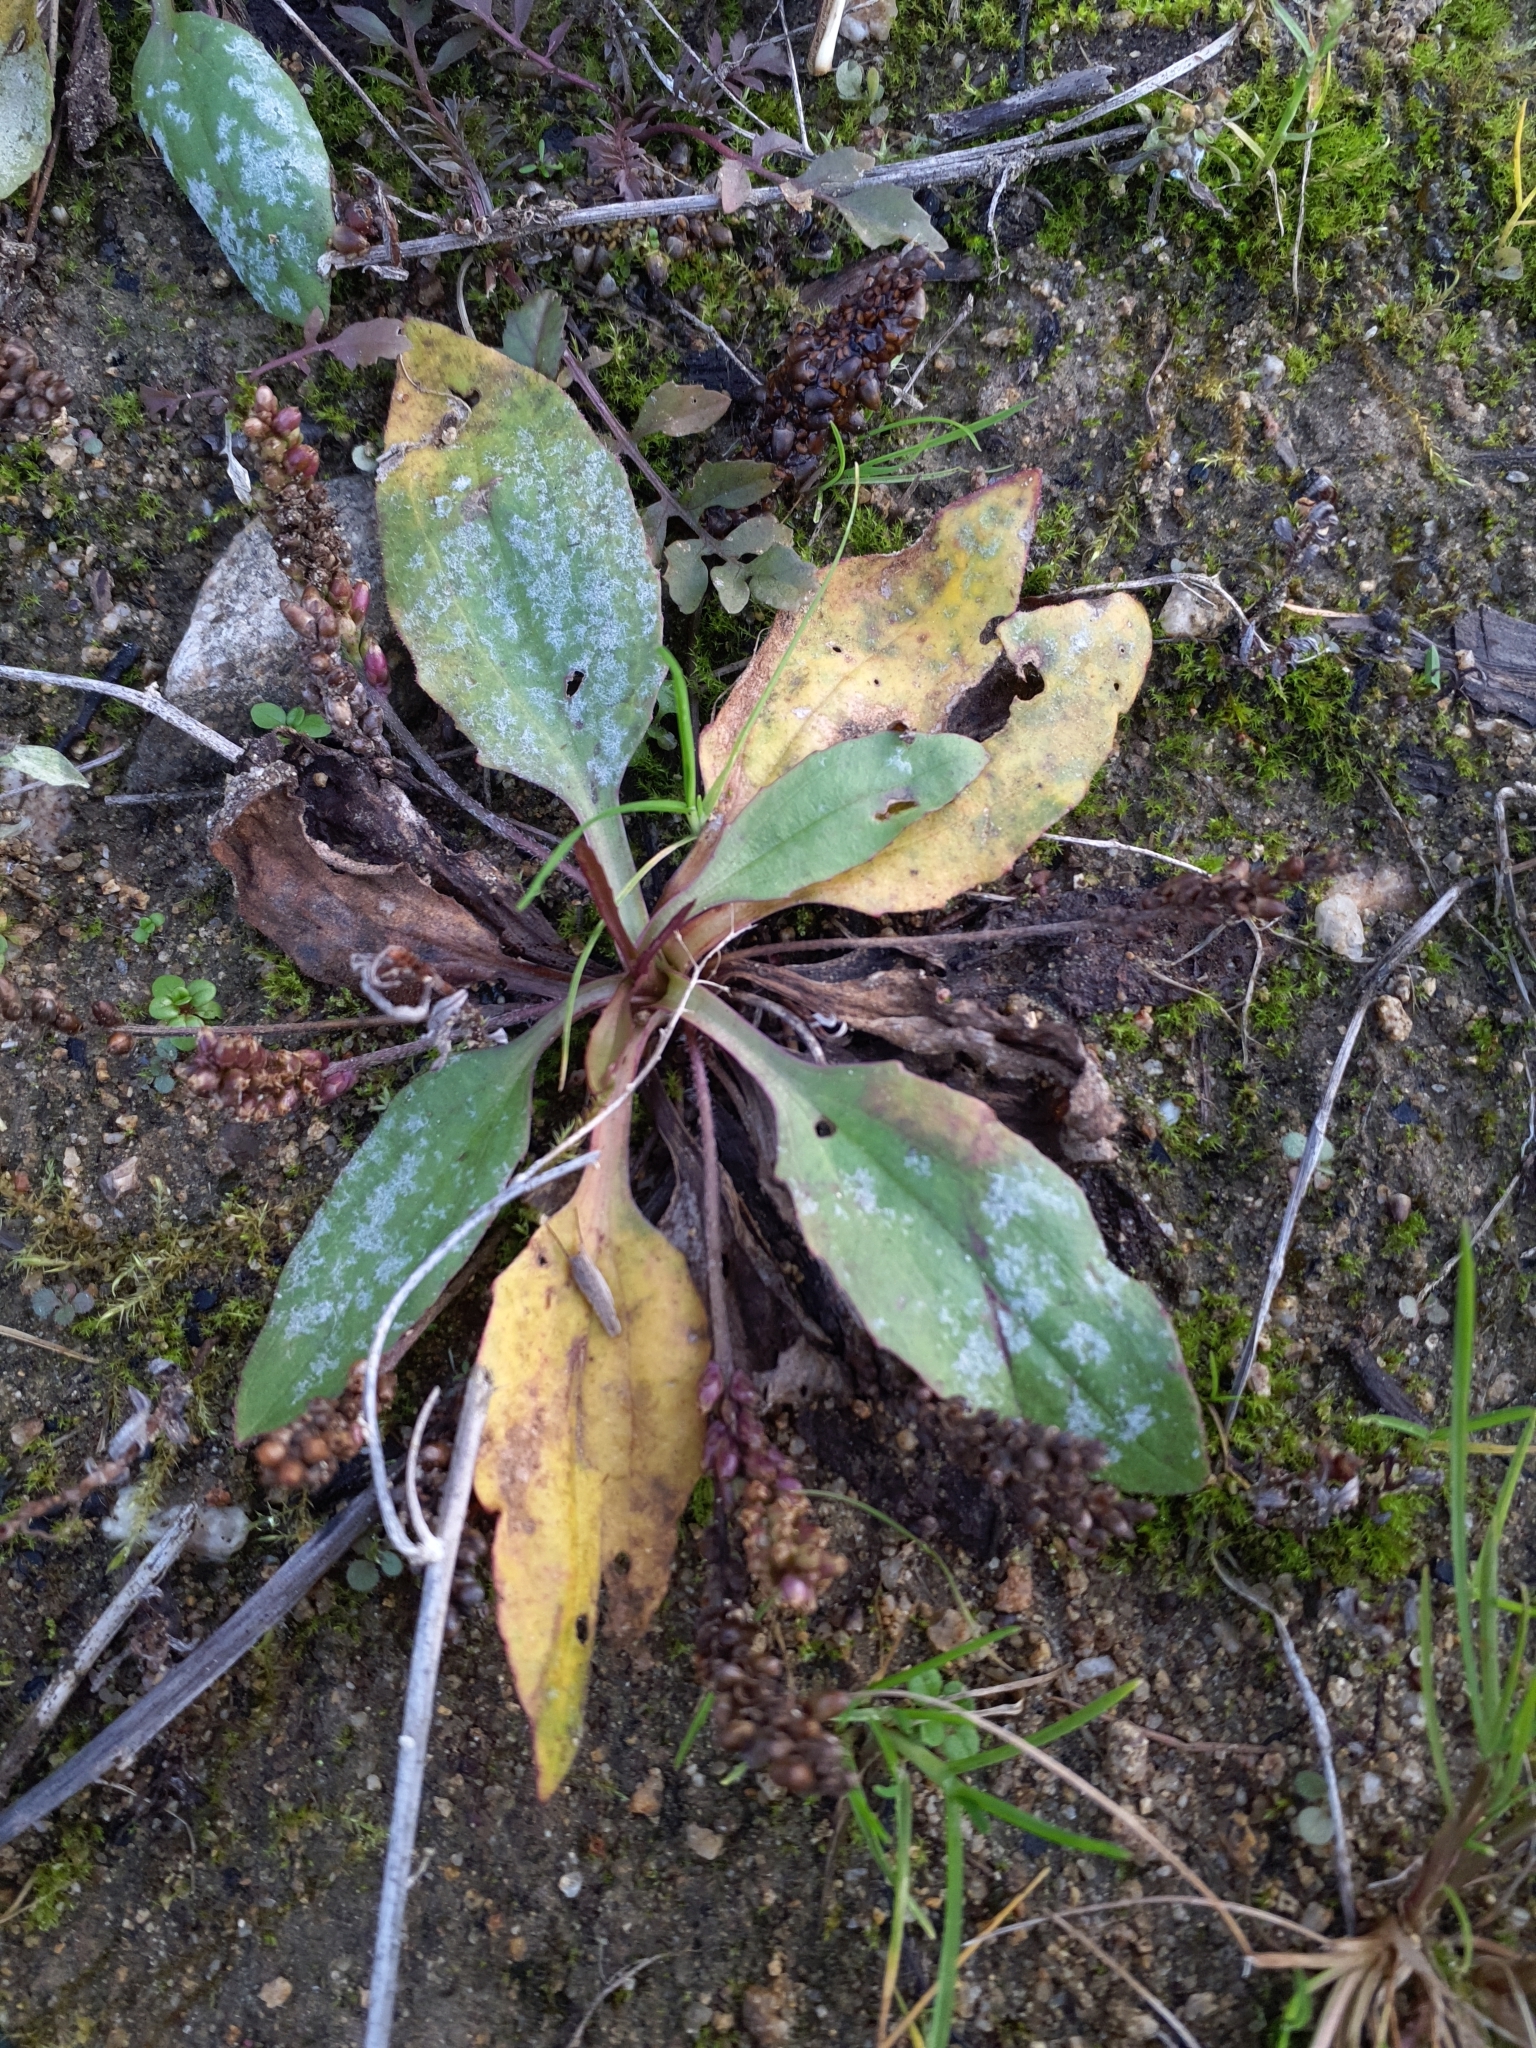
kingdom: Plantae
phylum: Tracheophyta
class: Magnoliopsida
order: Lamiales
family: Plantaginaceae
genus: Plantago
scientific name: Plantago uliginosa
